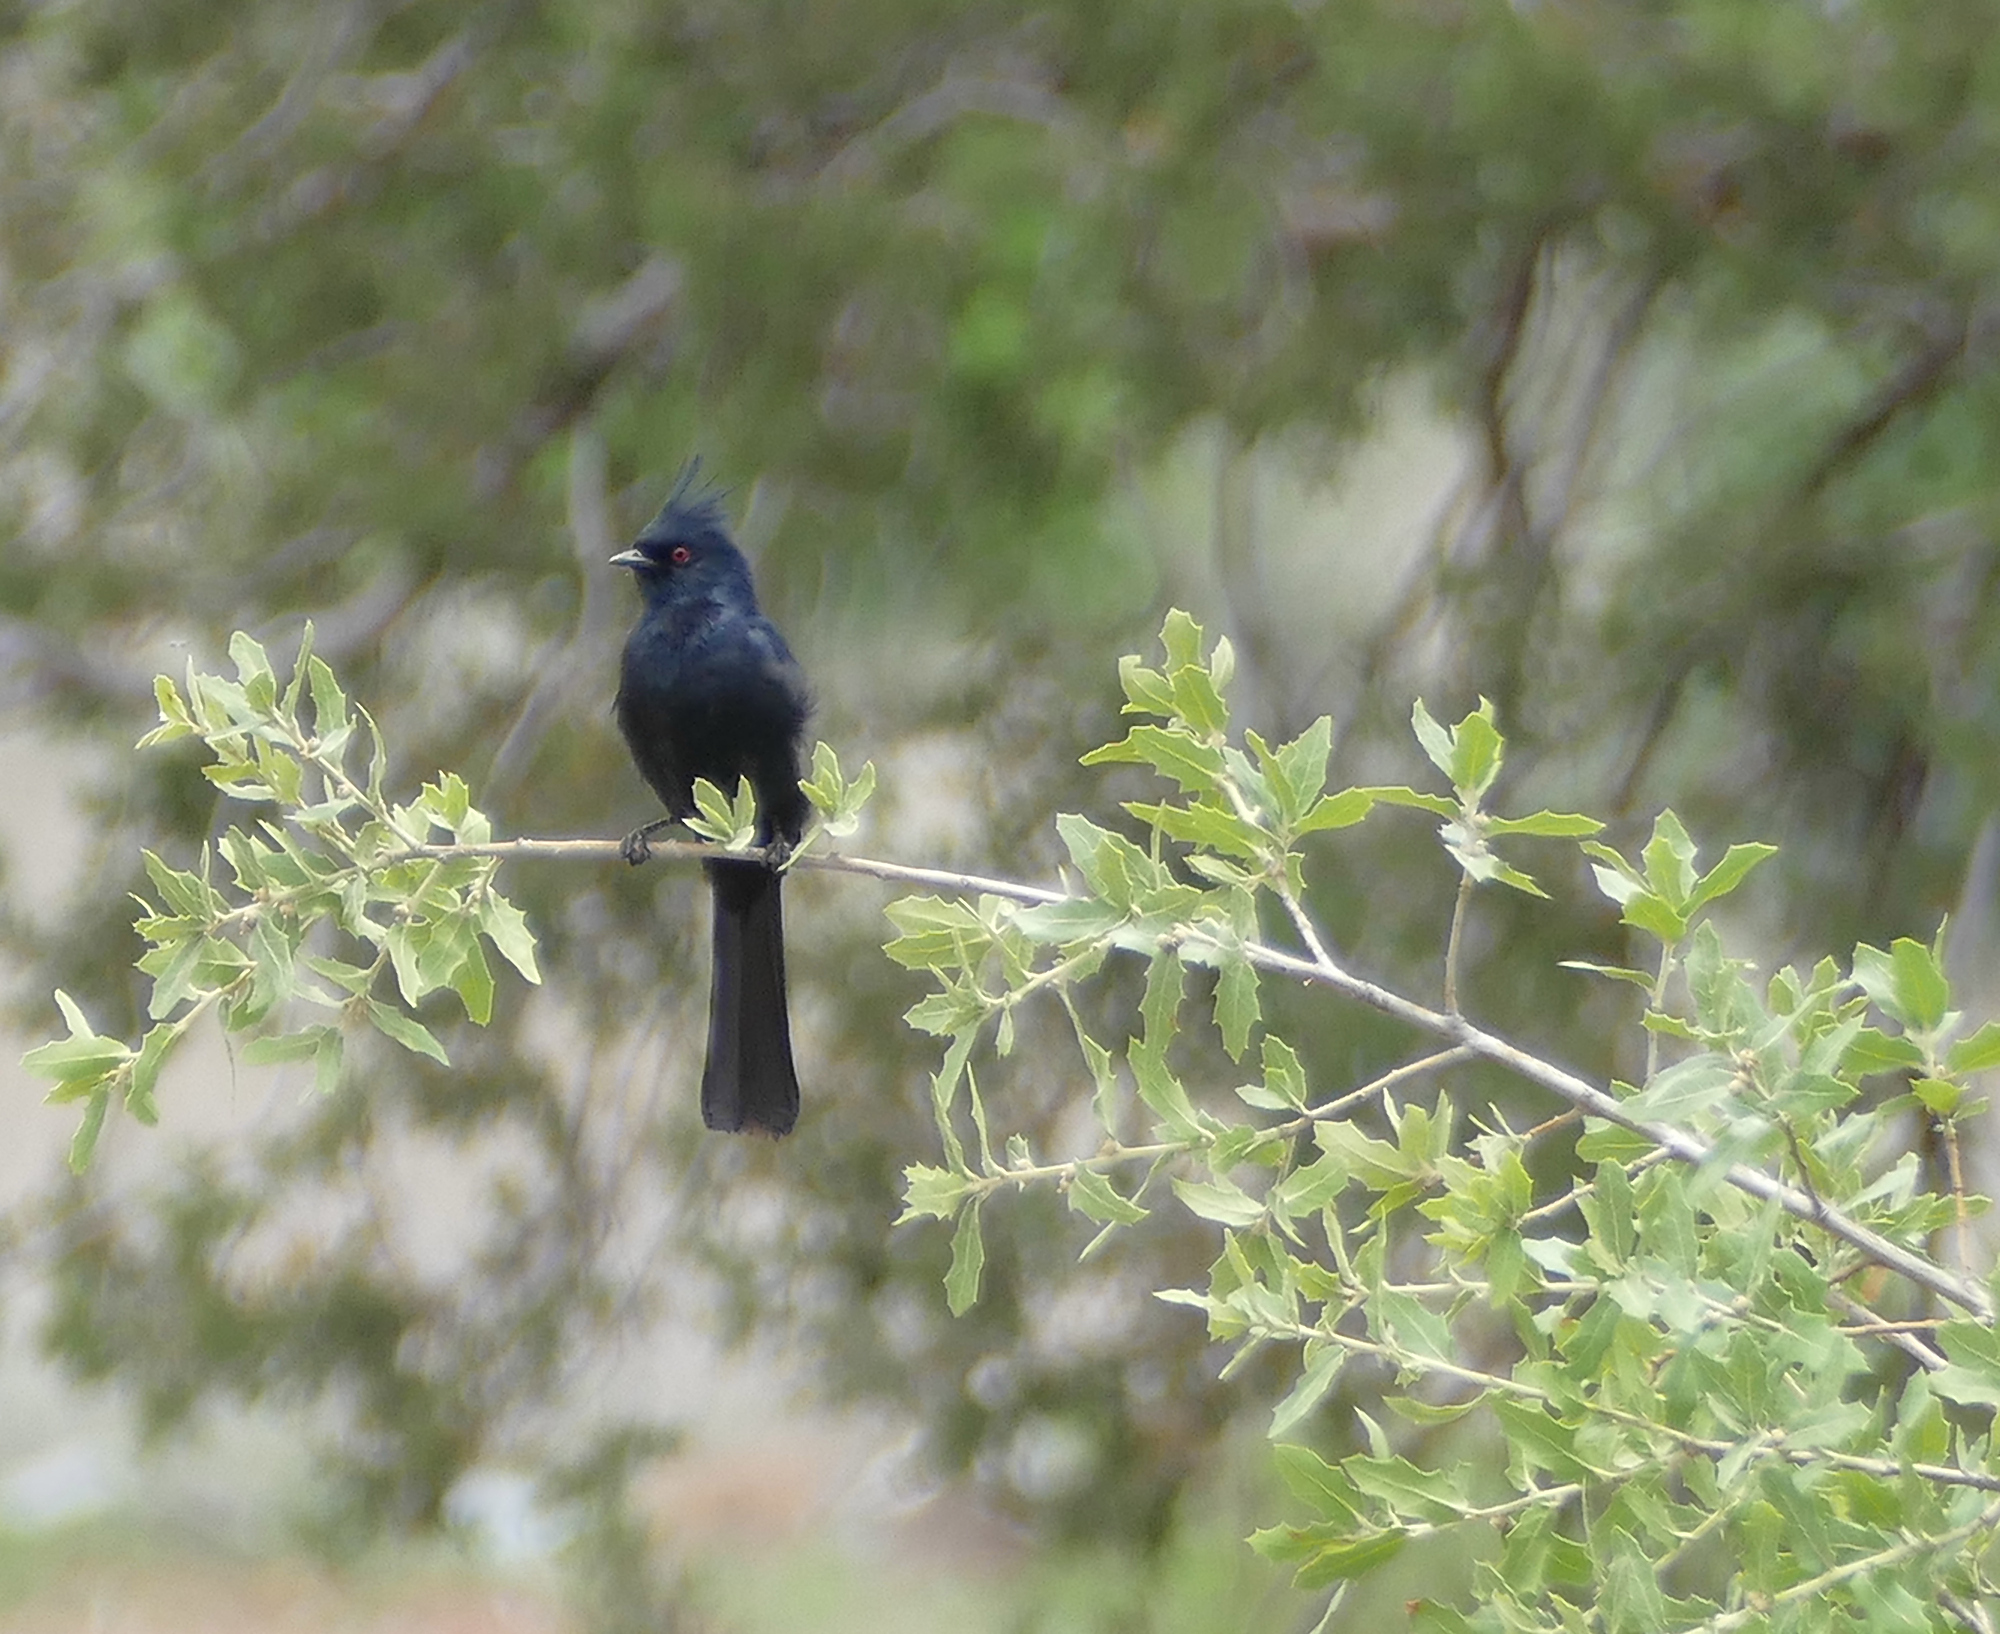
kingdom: Animalia
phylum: Chordata
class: Aves
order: Passeriformes
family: Ptilogonatidae
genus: Phainopepla
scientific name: Phainopepla nitens
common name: Phainopepla
